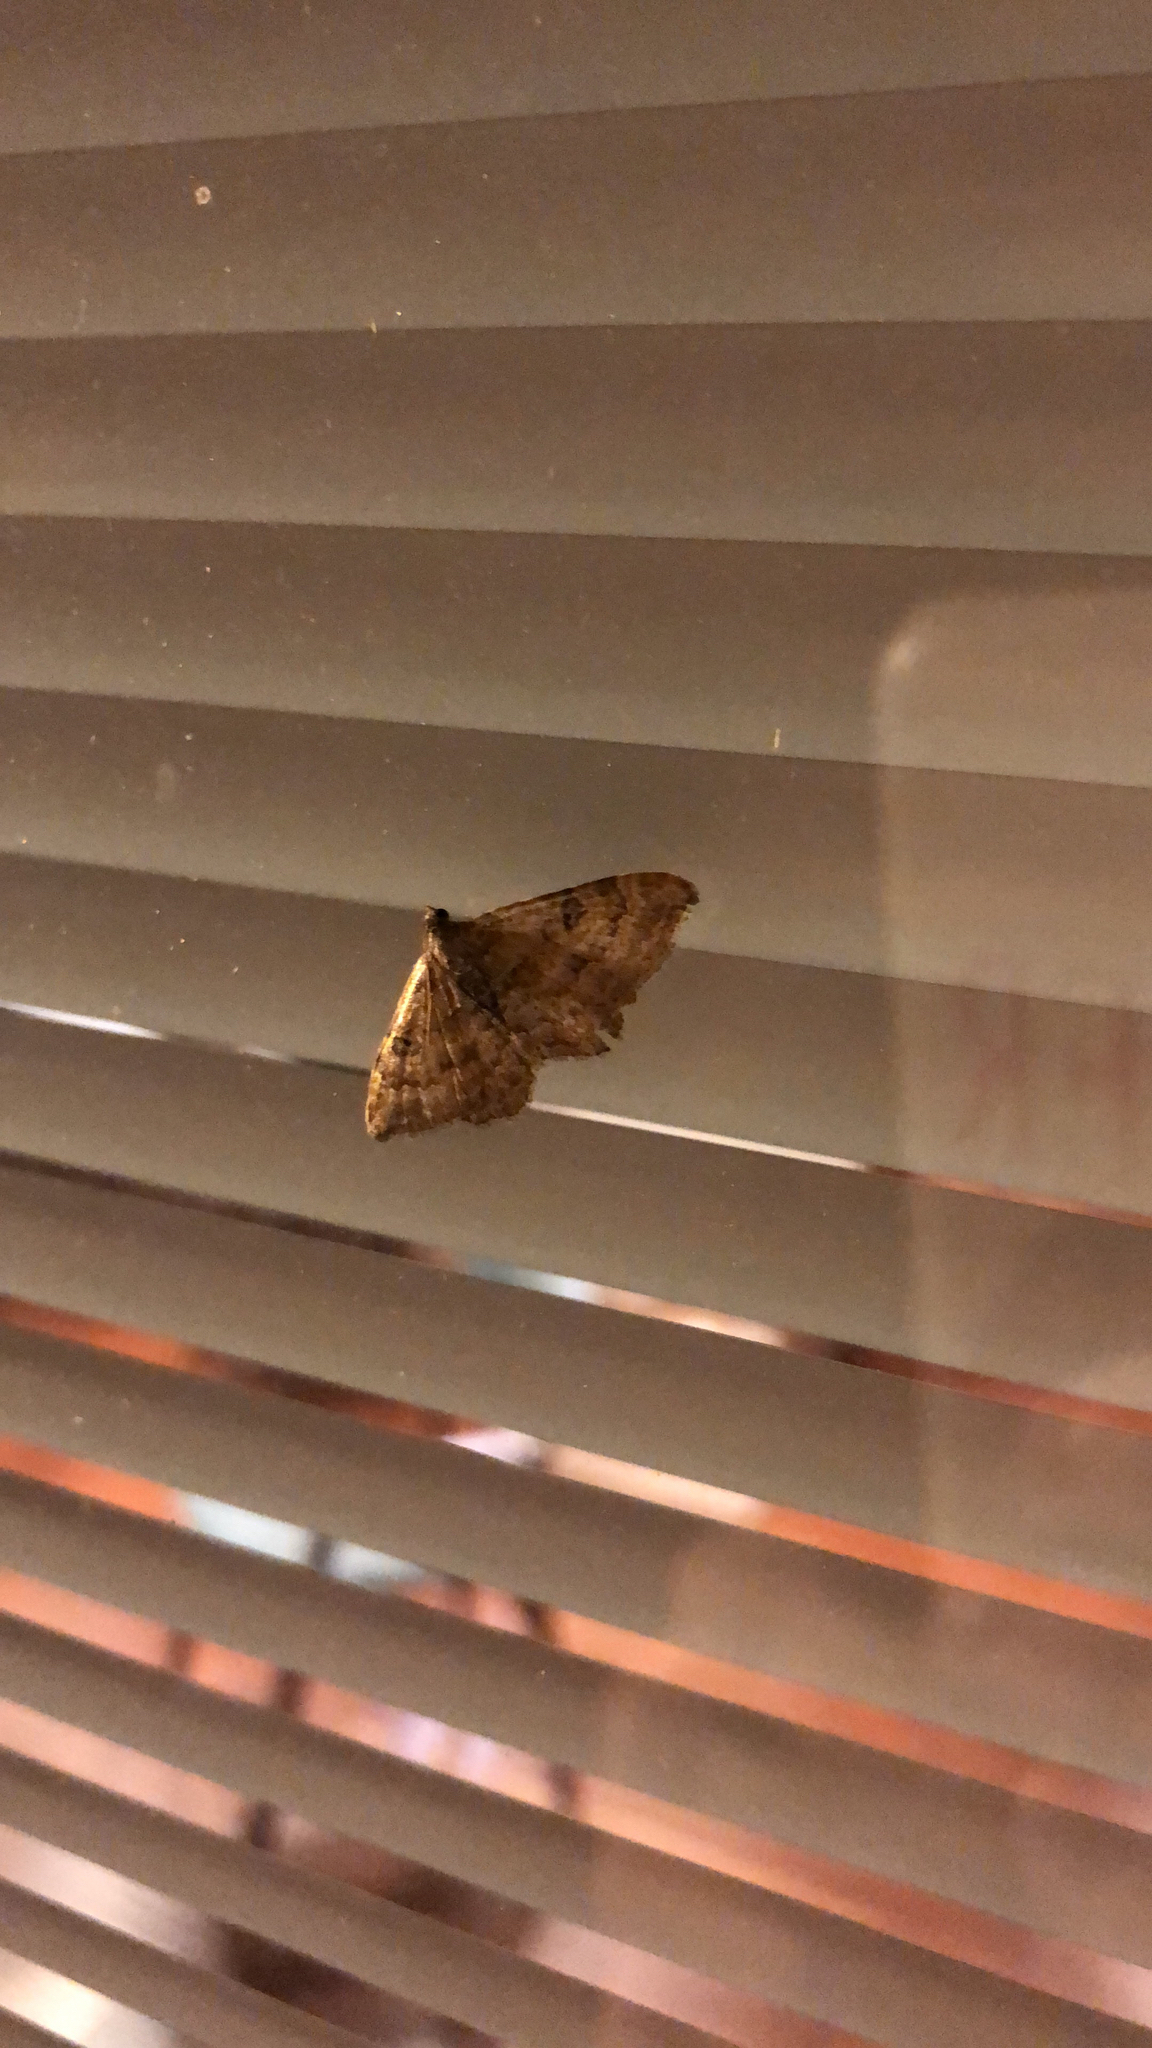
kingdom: Animalia
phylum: Arthropoda
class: Insecta
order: Lepidoptera
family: Geometridae
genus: Orthonama
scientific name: Orthonama obstipata
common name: The gem
